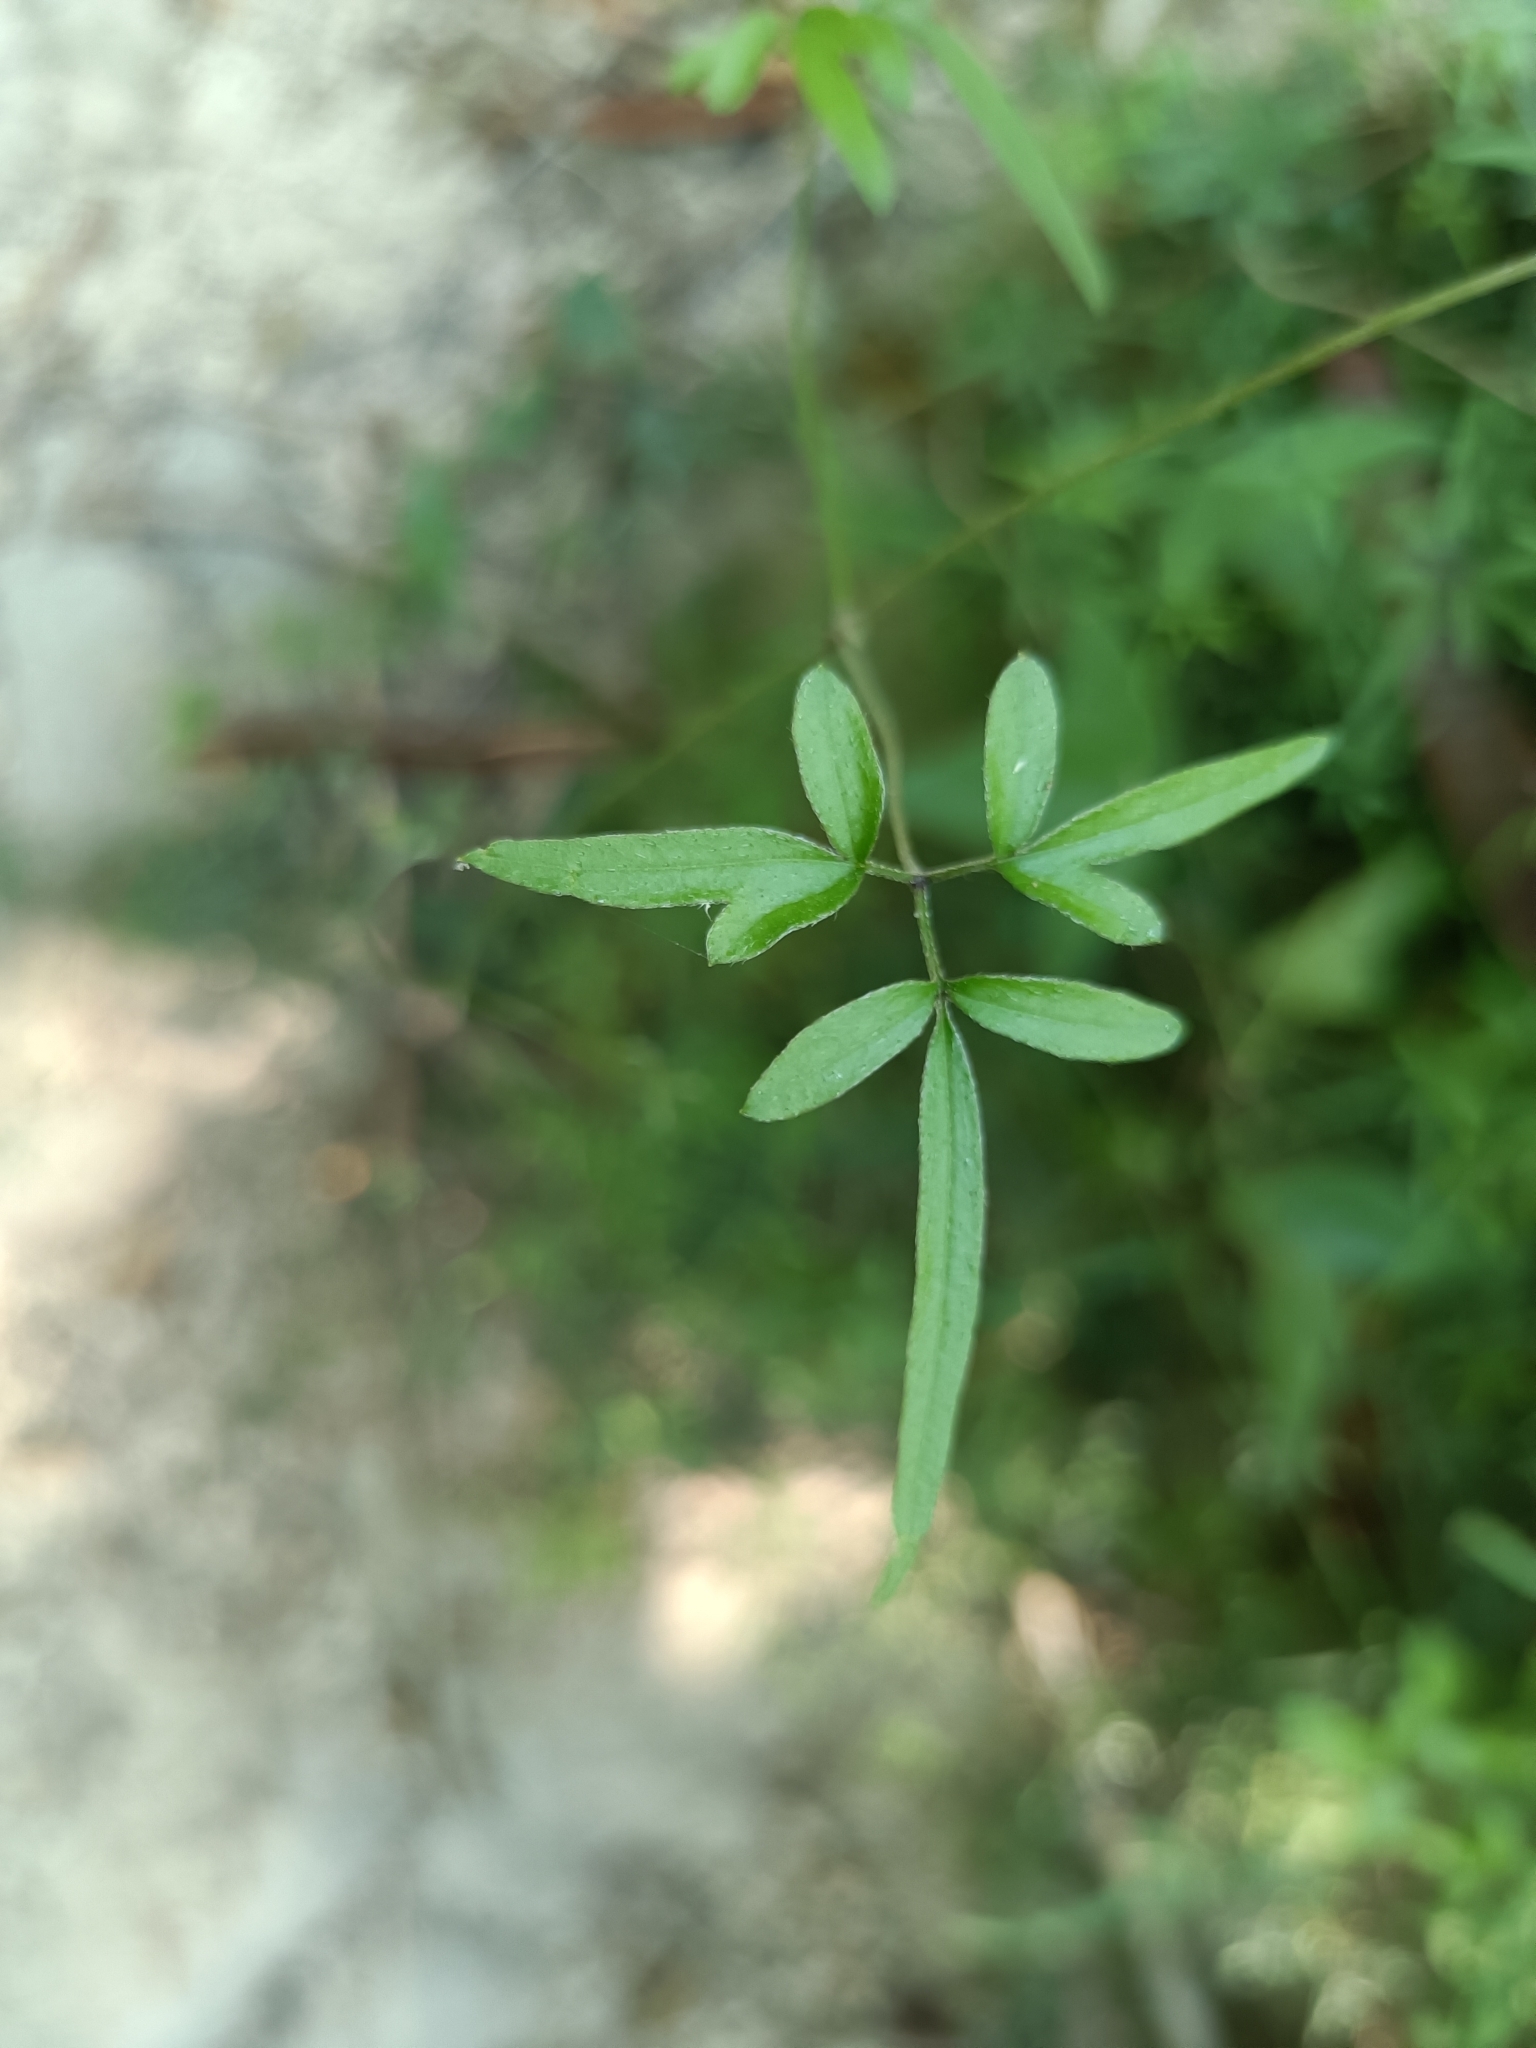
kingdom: Plantae
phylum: Tracheophyta
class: Magnoliopsida
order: Ranunculales
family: Ranunculaceae
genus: Clematis
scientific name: Clematis formosana
